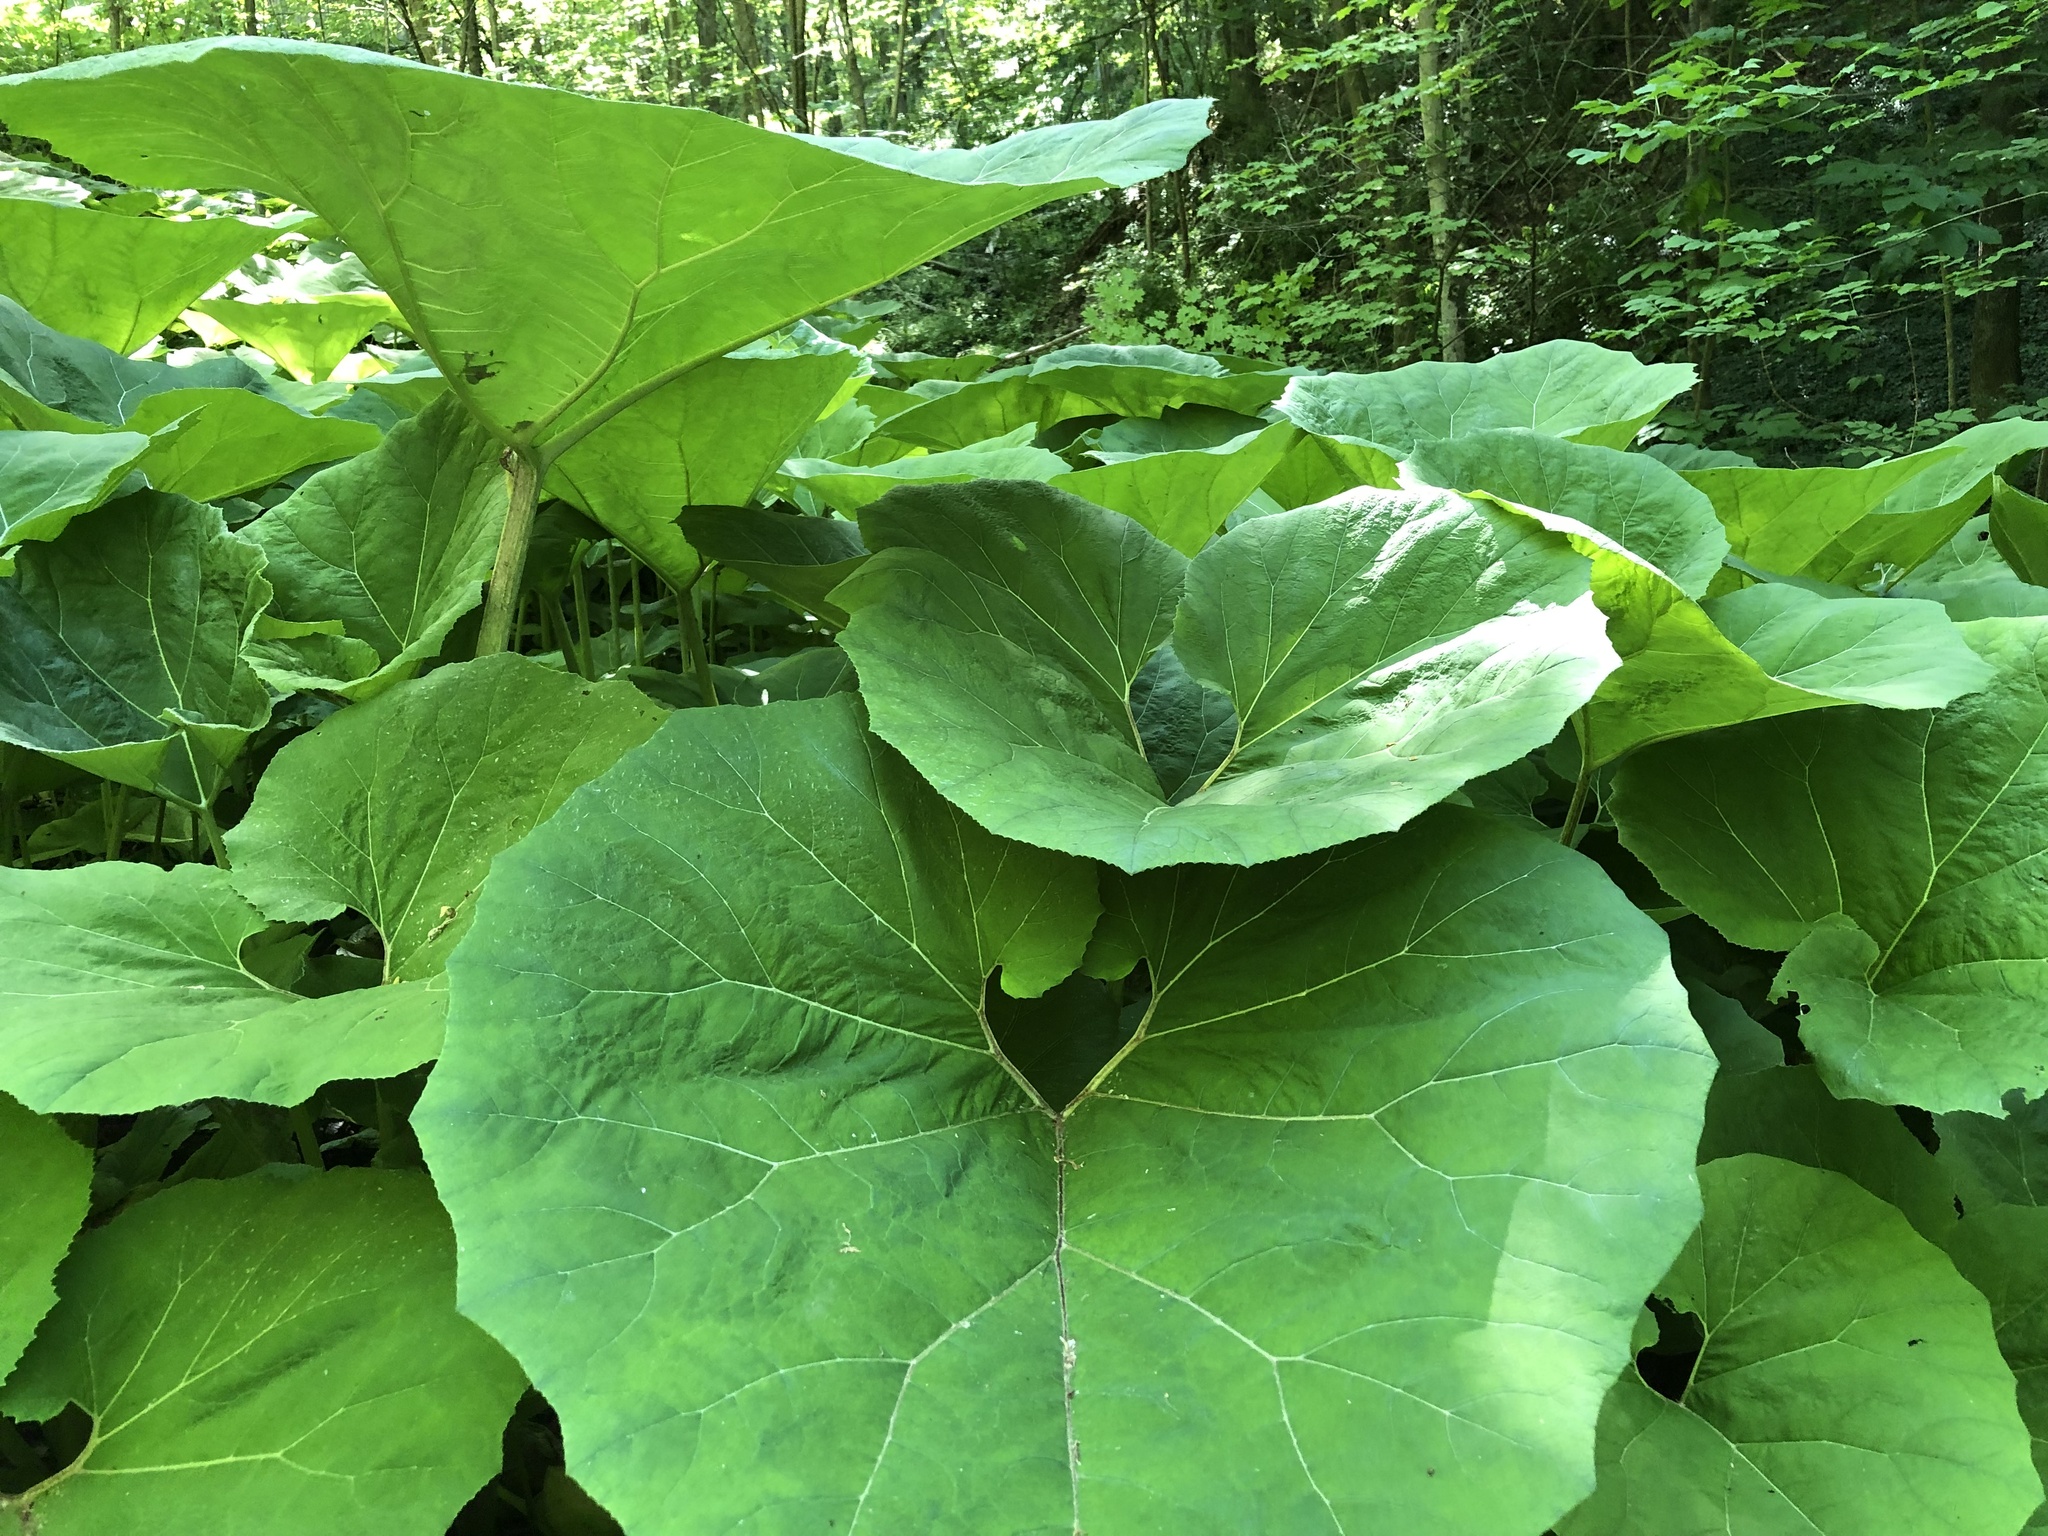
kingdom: Plantae
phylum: Tracheophyta
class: Magnoliopsida
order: Asterales
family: Asteraceae
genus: Petasites
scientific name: Petasites hybridus
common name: Butterbur
